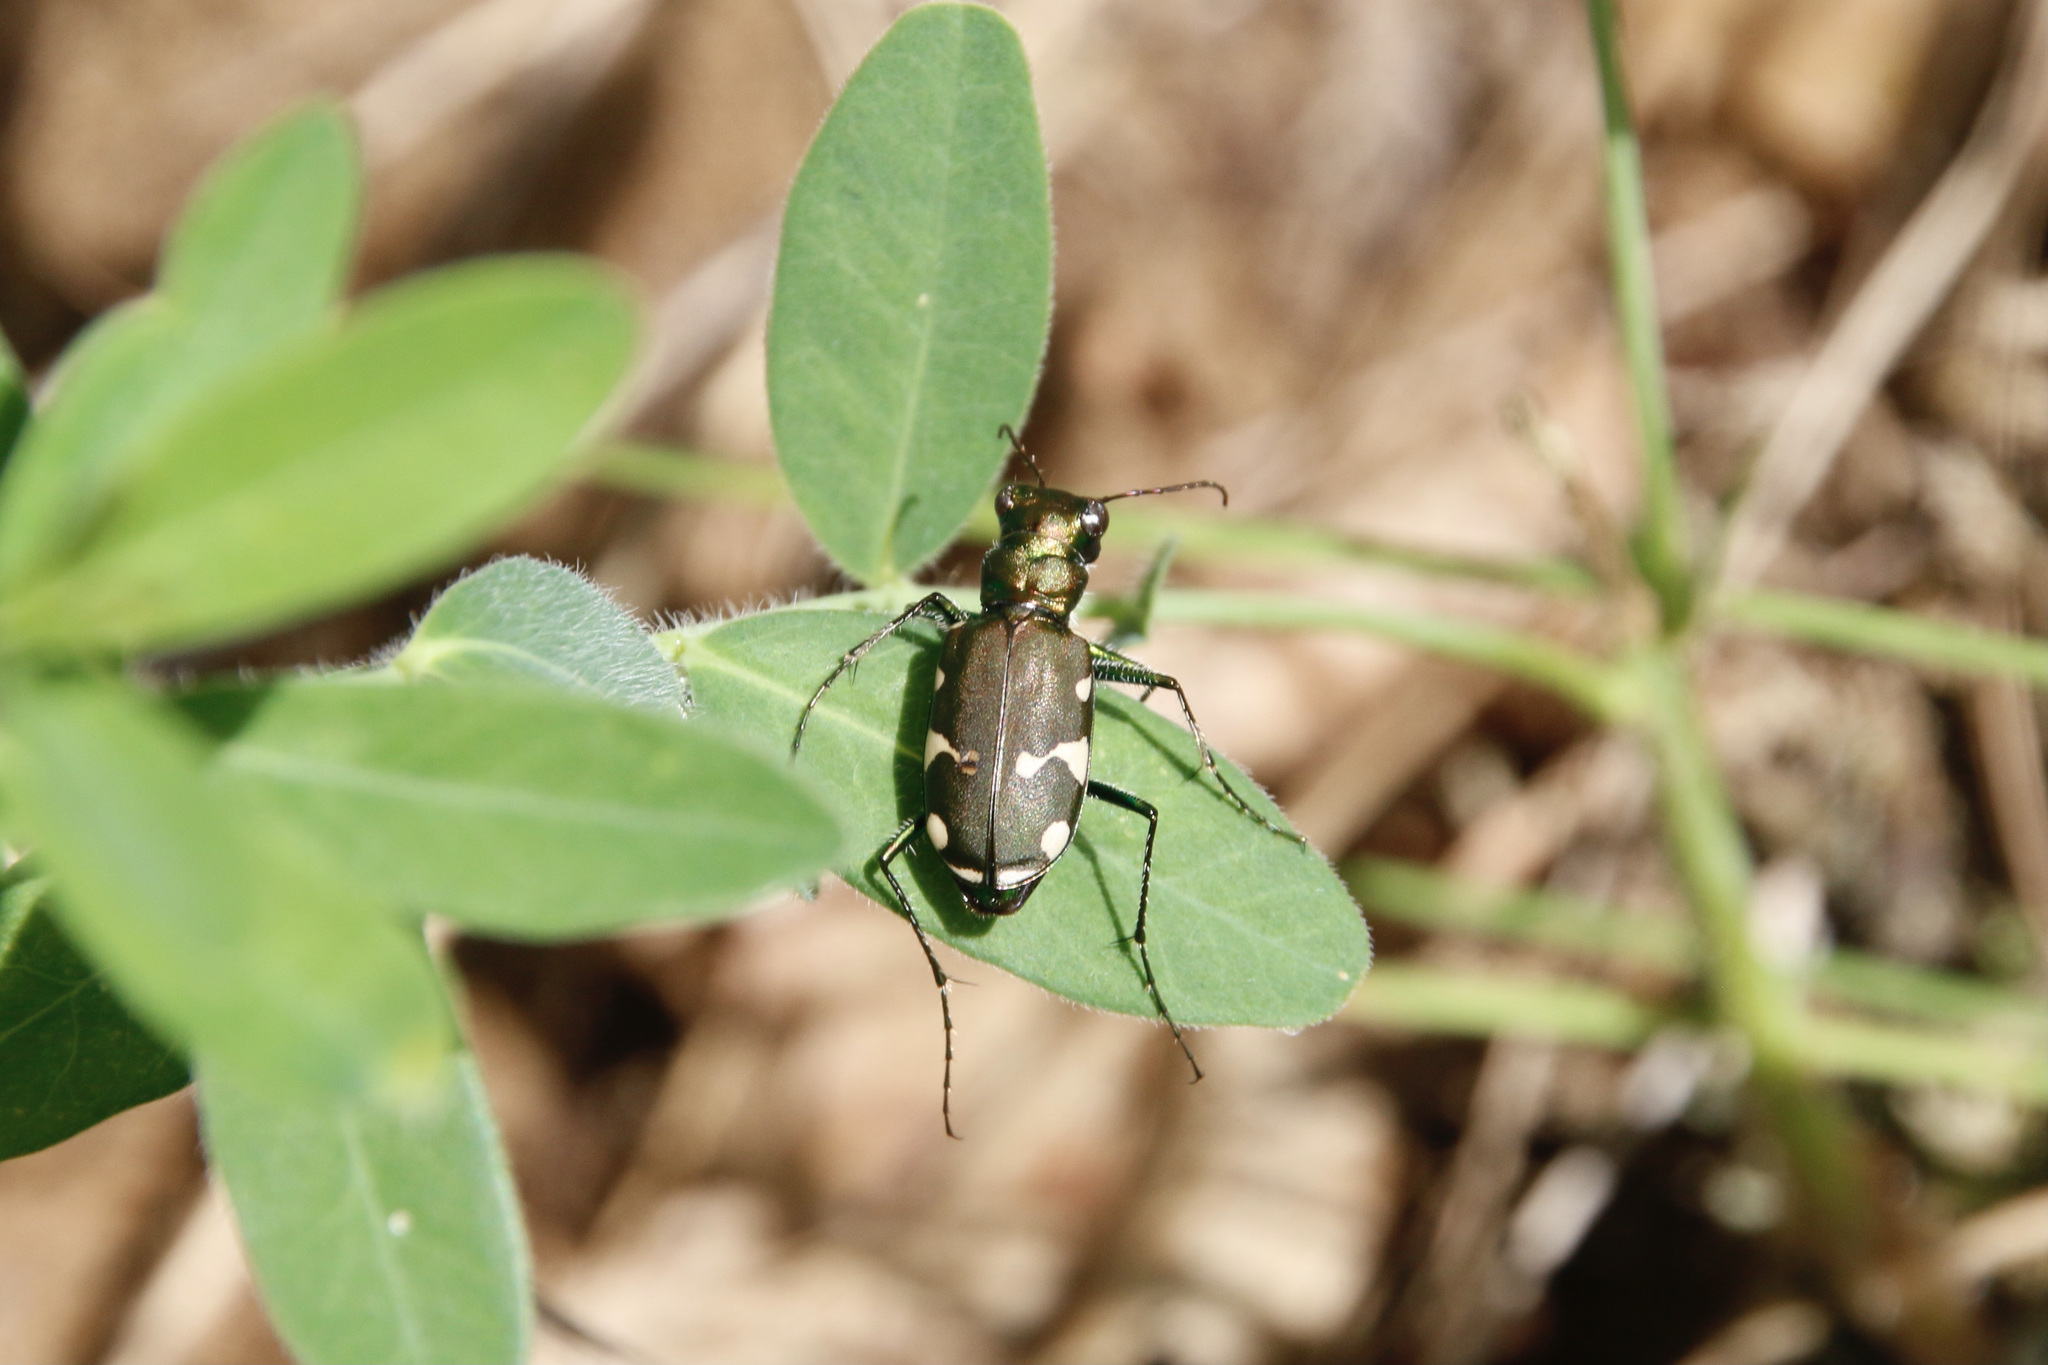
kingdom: Animalia
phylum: Arthropoda
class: Insecta
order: Coleoptera
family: Carabidae
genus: Cicindela
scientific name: Cicindela patruela
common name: Northern barrens tiger beetle
